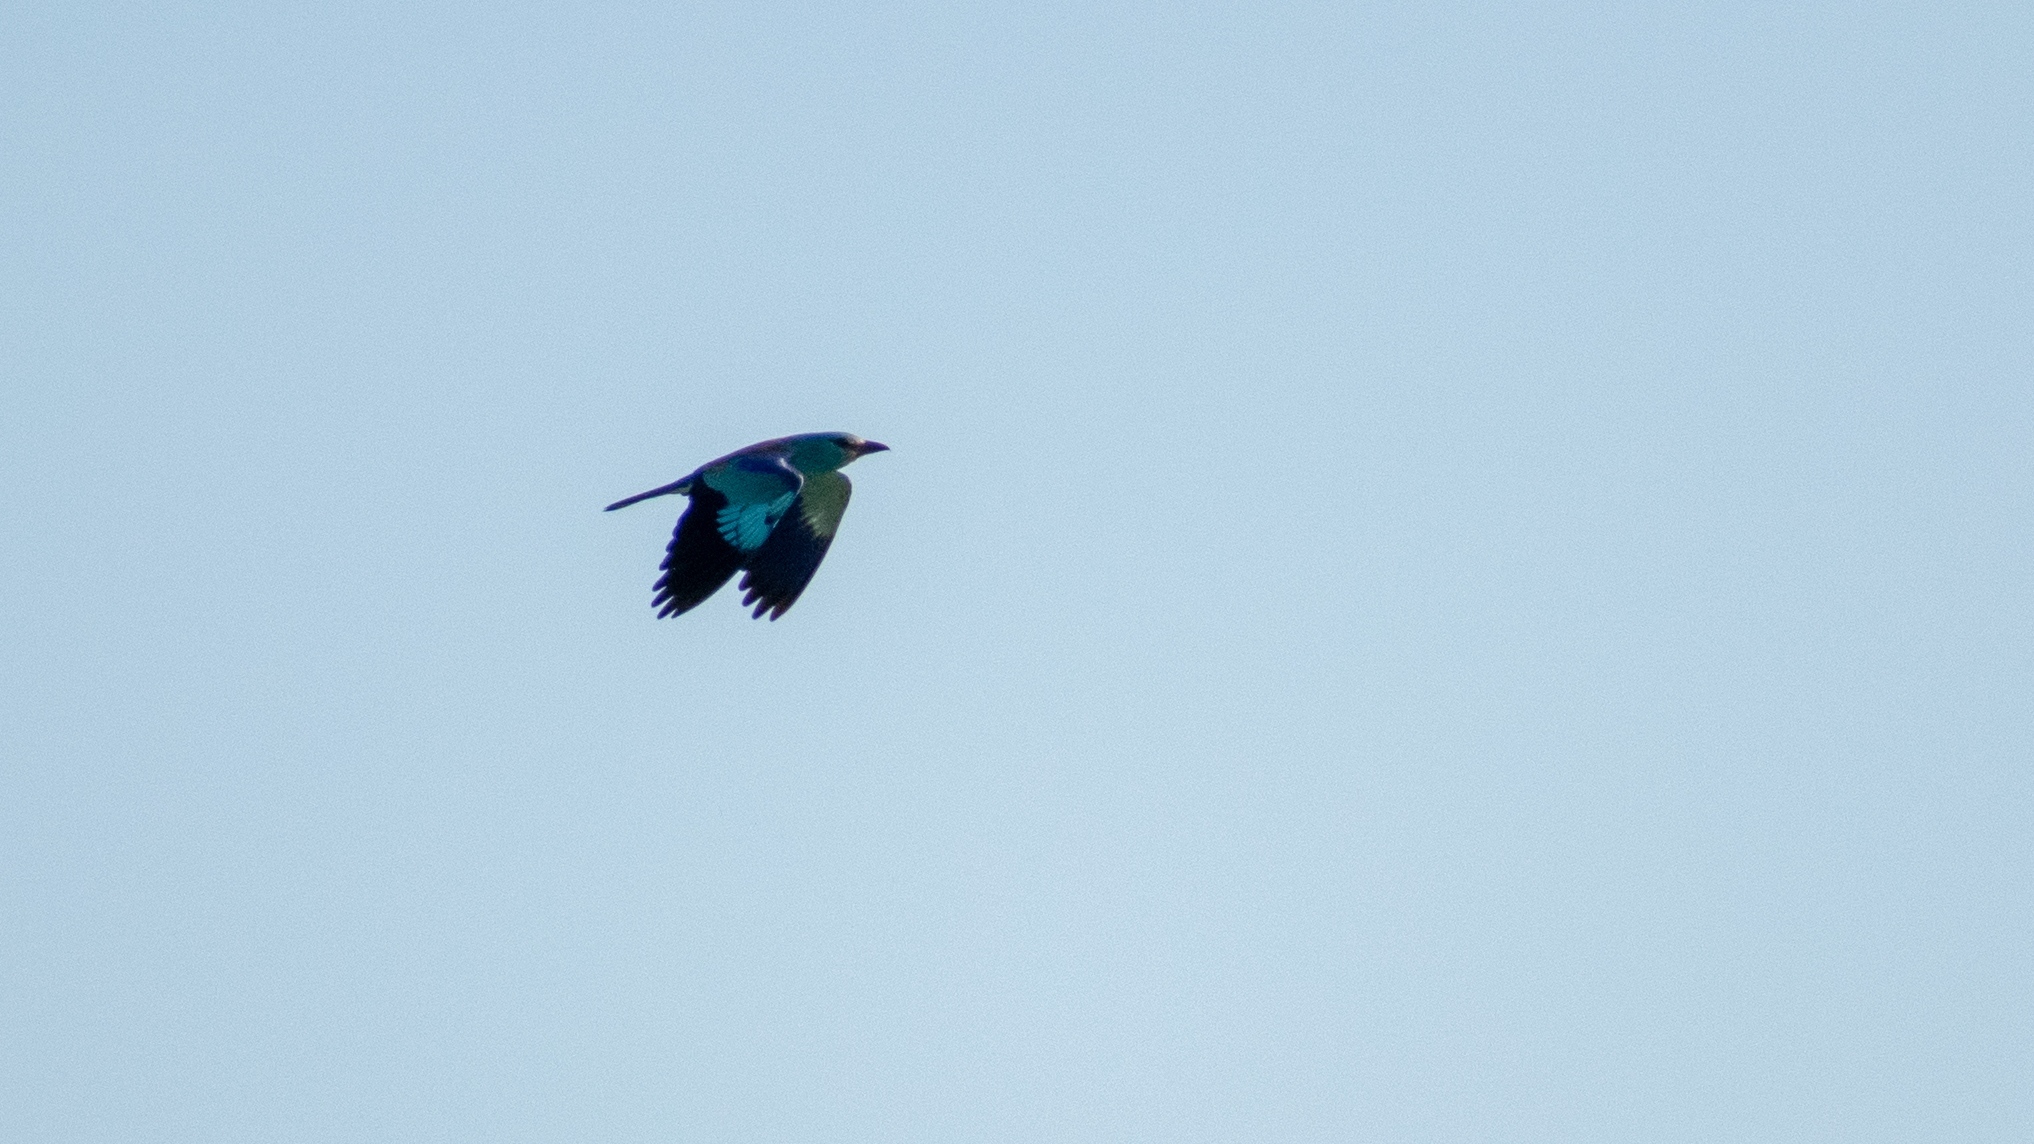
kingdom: Animalia
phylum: Chordata
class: Aves
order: Coraciiformes
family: Coraciidae
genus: Coracias
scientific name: Coracias garrulus
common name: European roller
